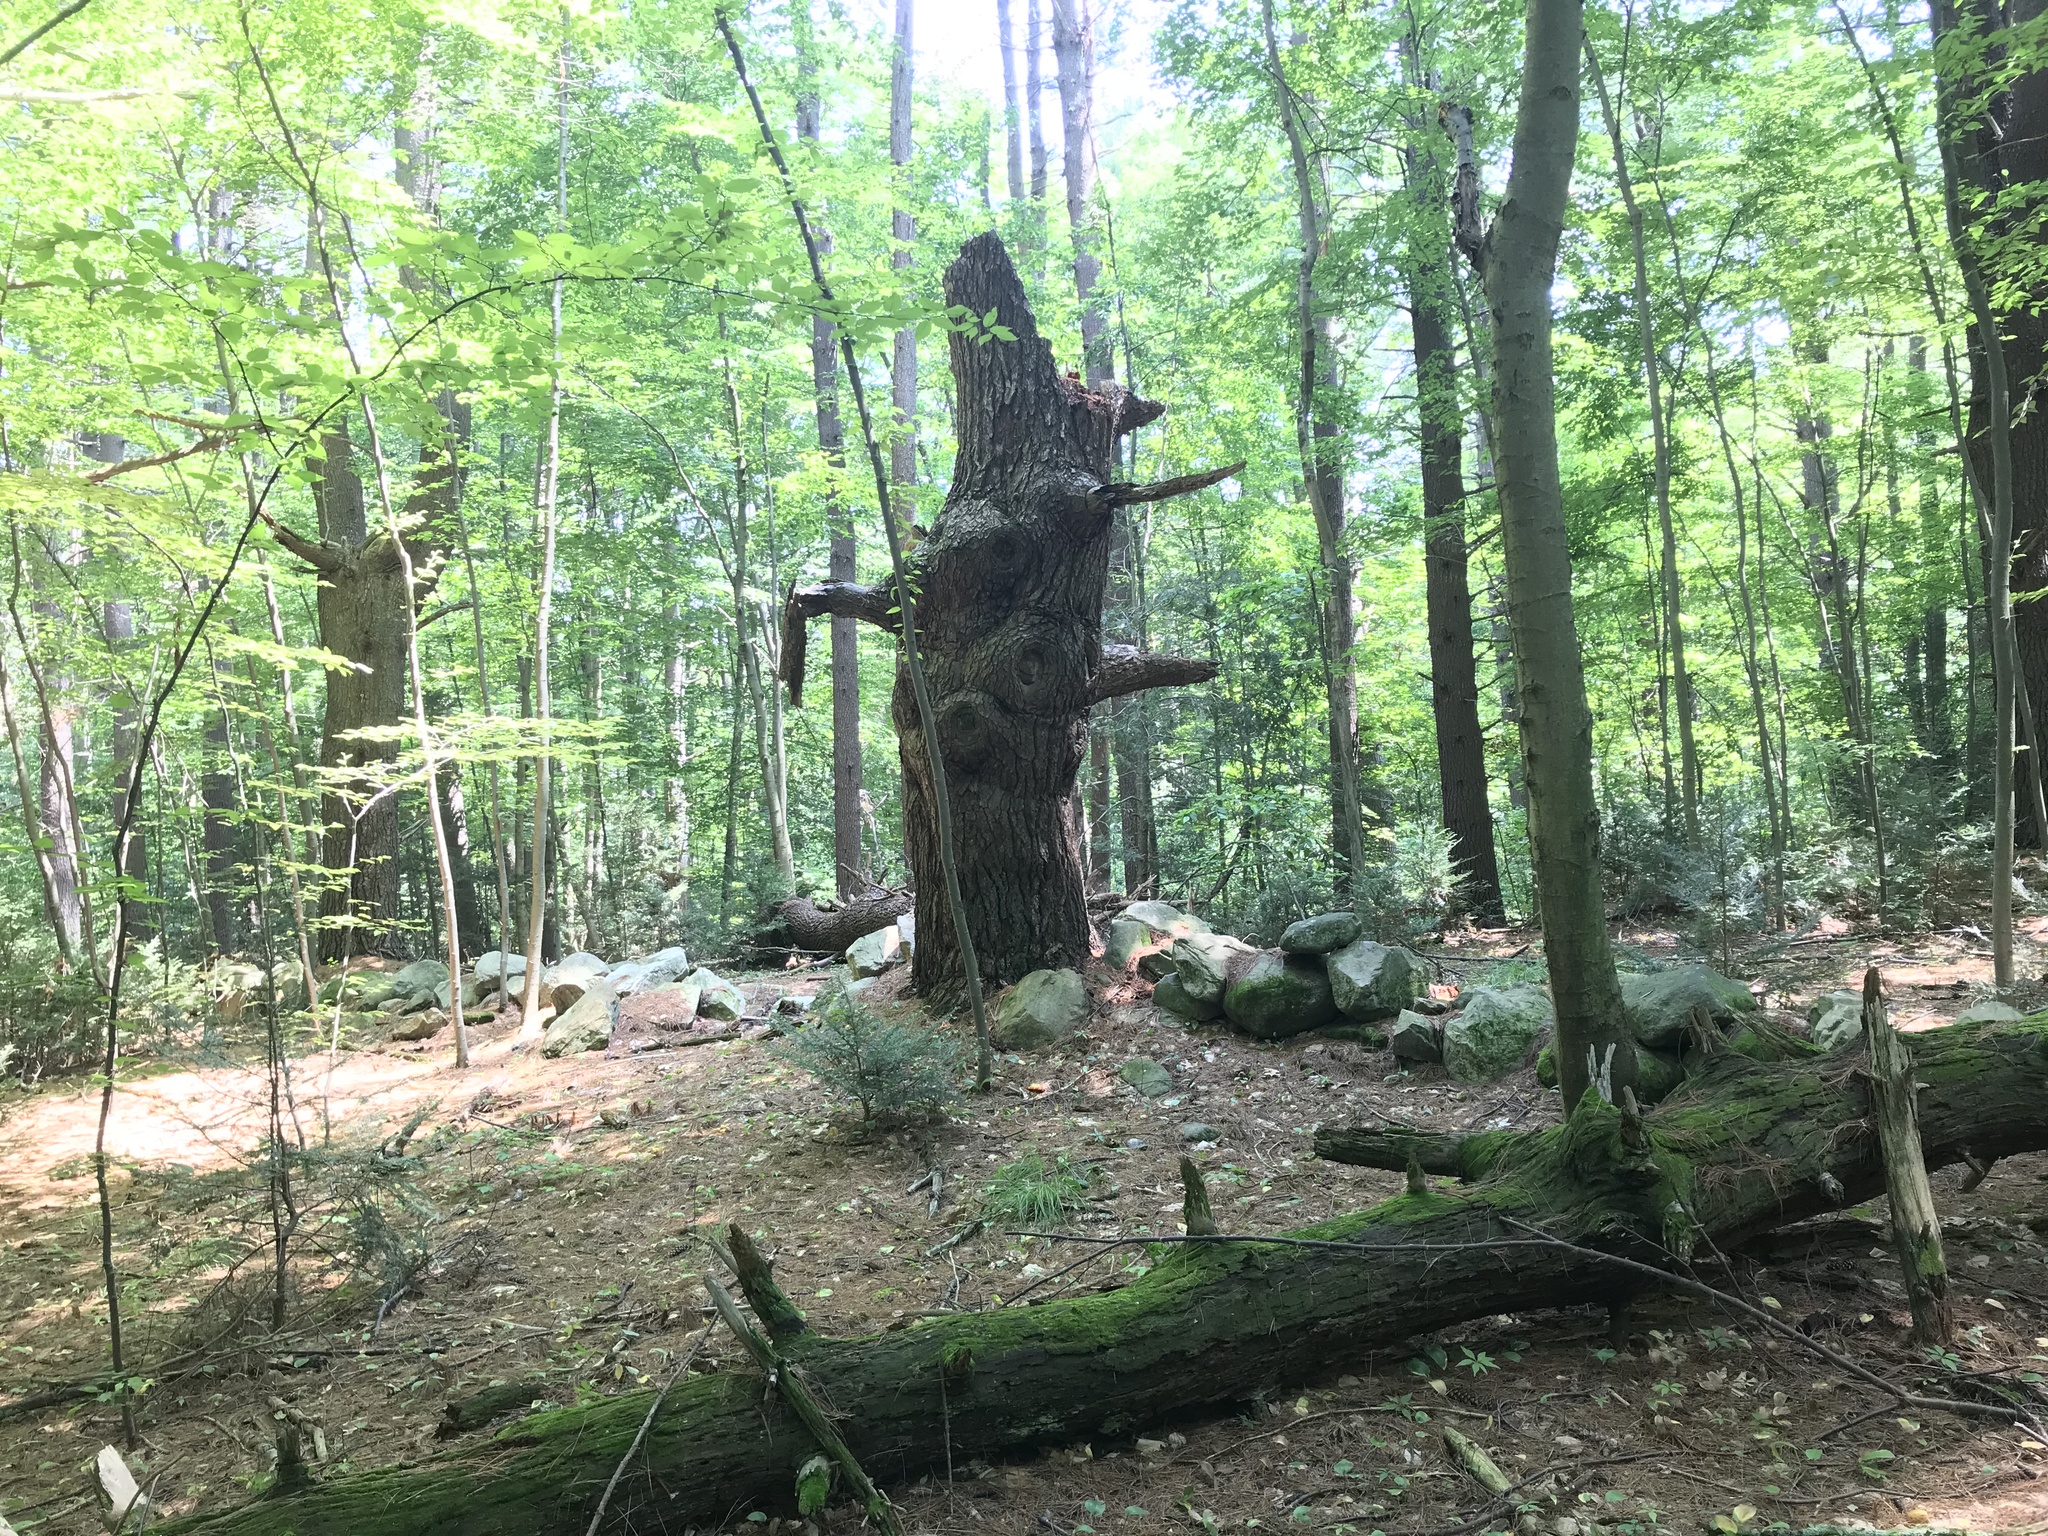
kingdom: Plantae
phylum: Tracheophyta
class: Pinopsida
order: Pinales
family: Pinaceae
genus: Pinus
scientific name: Pinus strobus
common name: Weymouth pine
